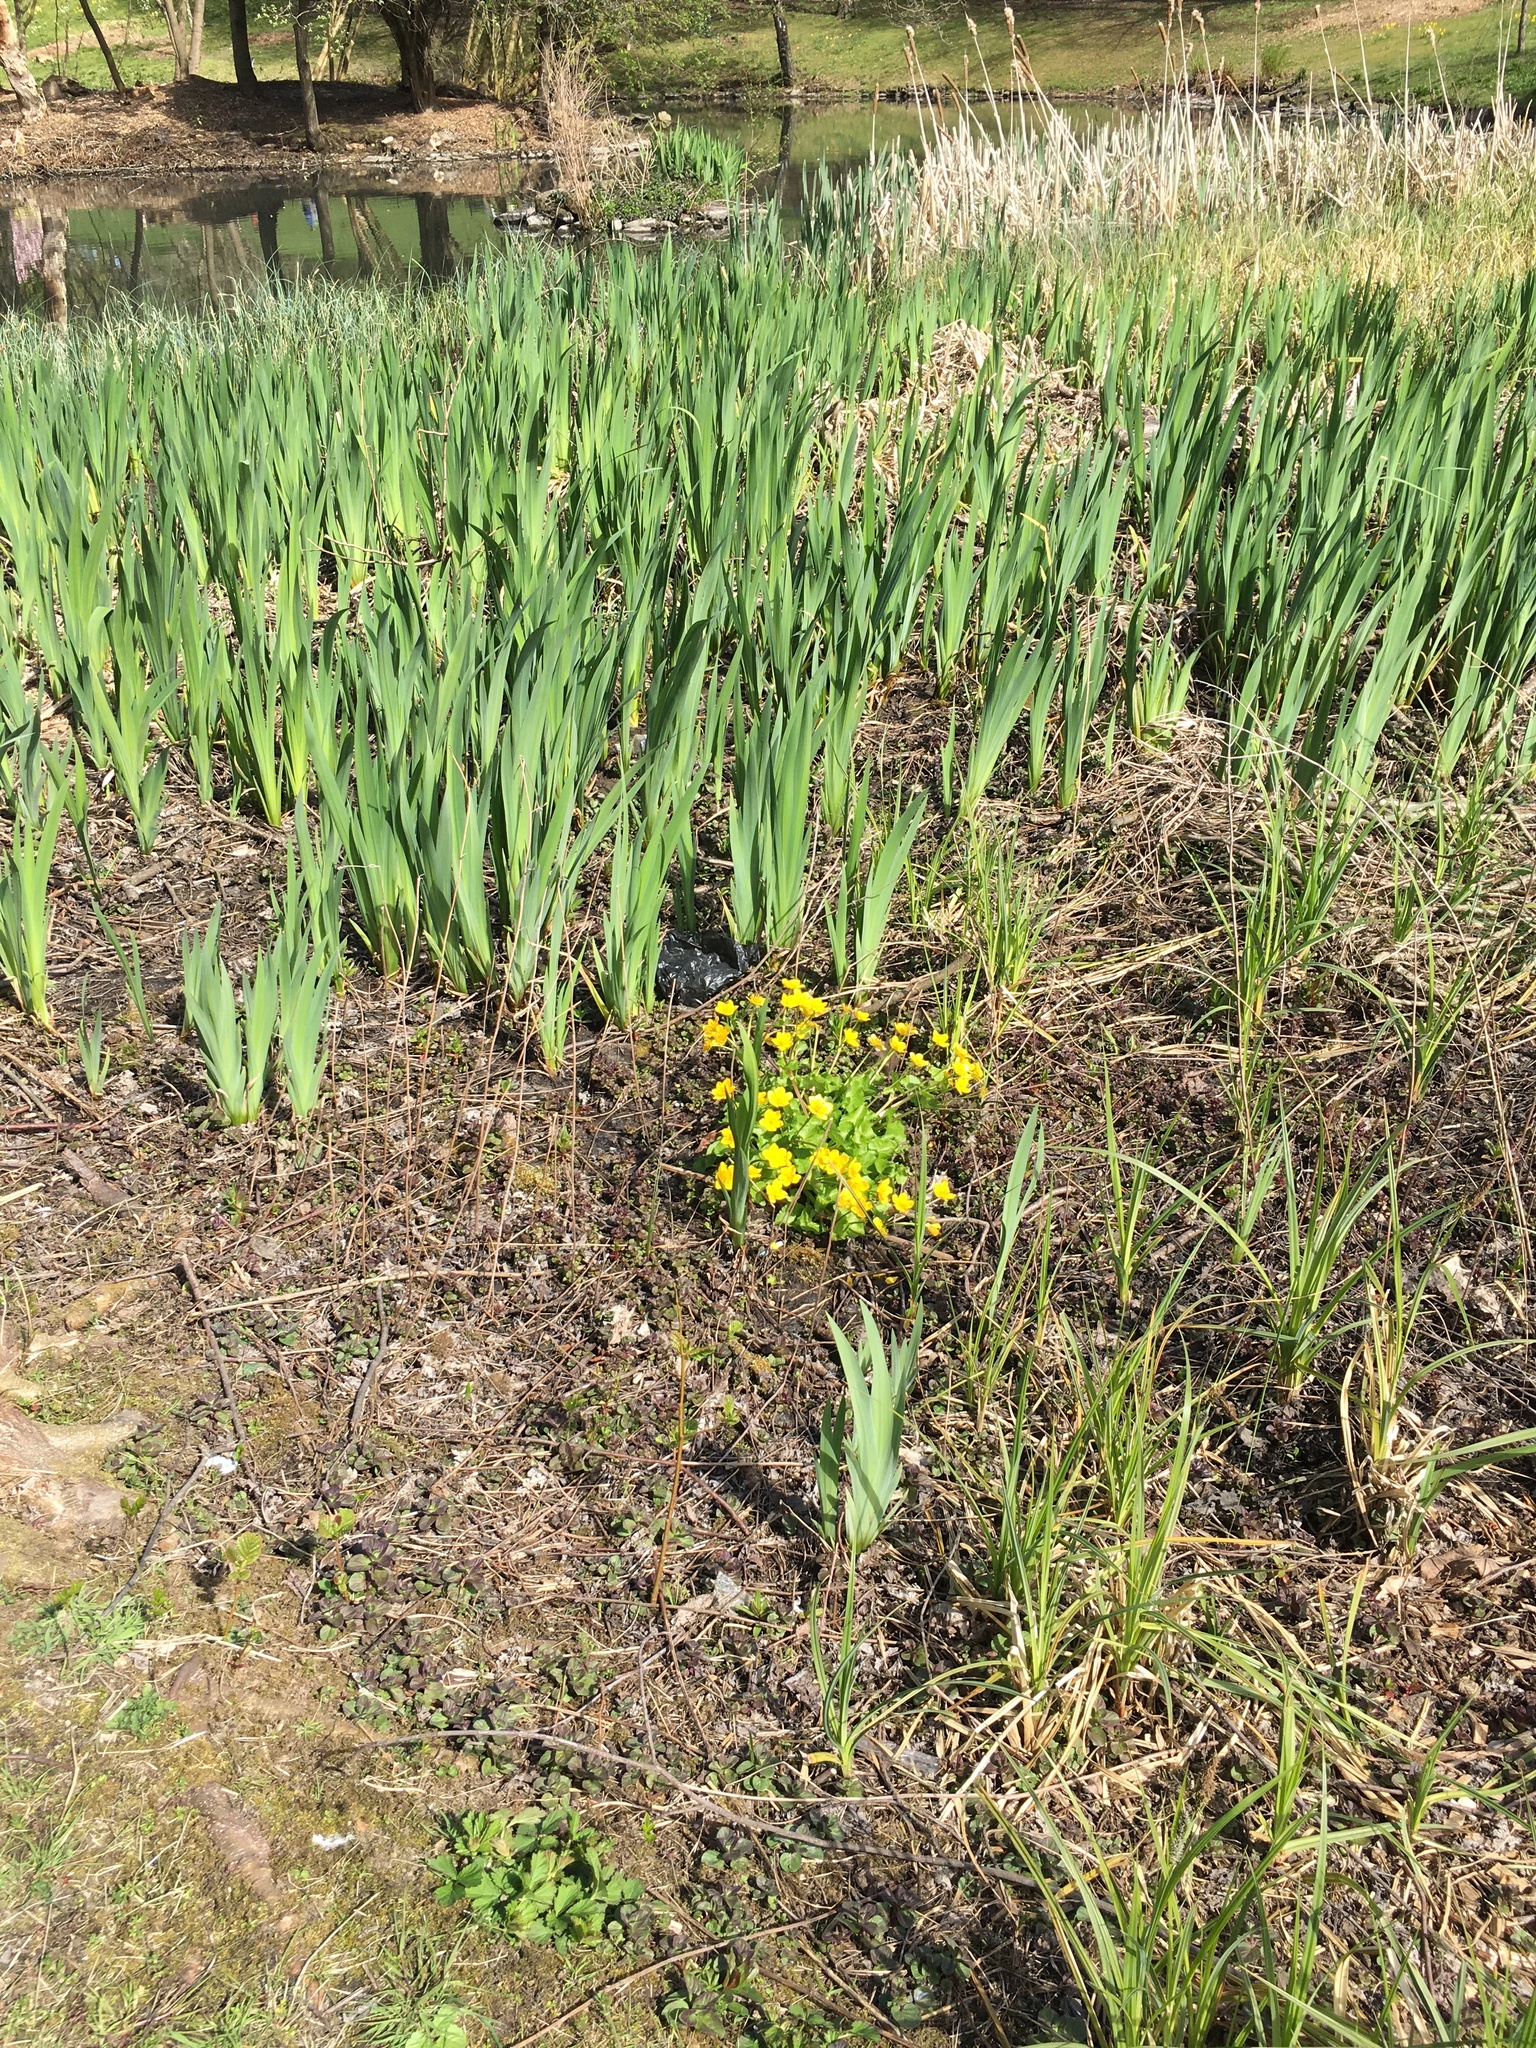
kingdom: Plantae
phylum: Tracheophyta
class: Liliopsida
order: Asparagales
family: Iridaceae
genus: Iris
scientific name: Iris pseudacorus
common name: Yellow flag
